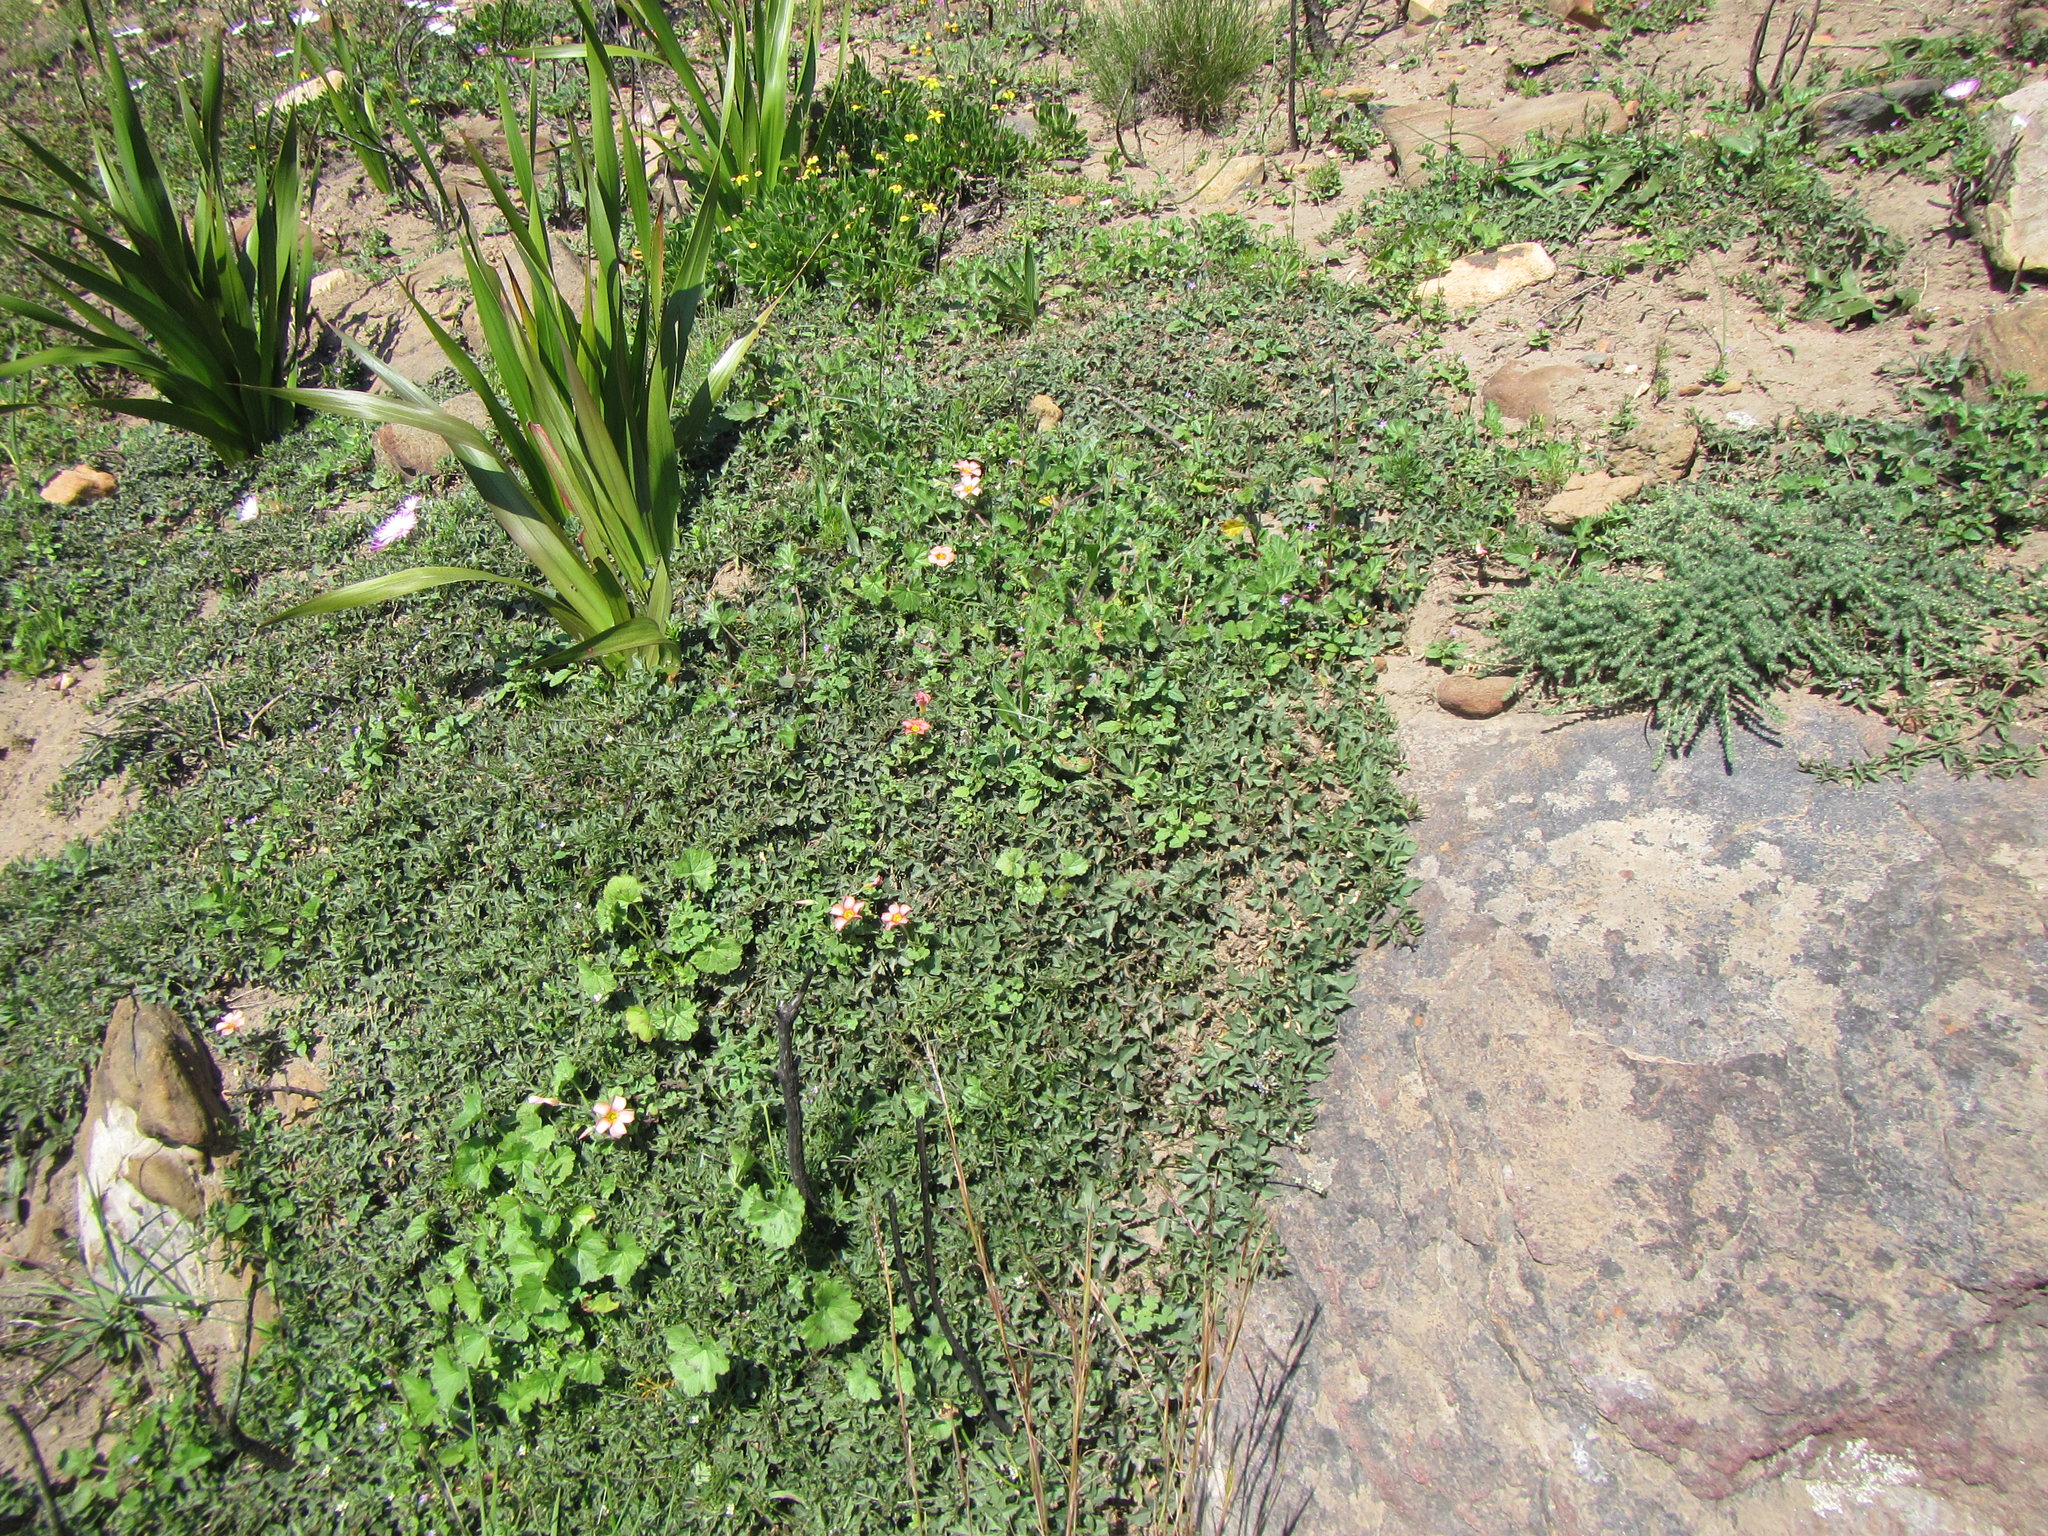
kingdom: Plantae
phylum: Tracheophyta
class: Magnoliopsida
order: Fabales
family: Fabaceae
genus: Dolichos
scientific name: Dolichos decumbens
